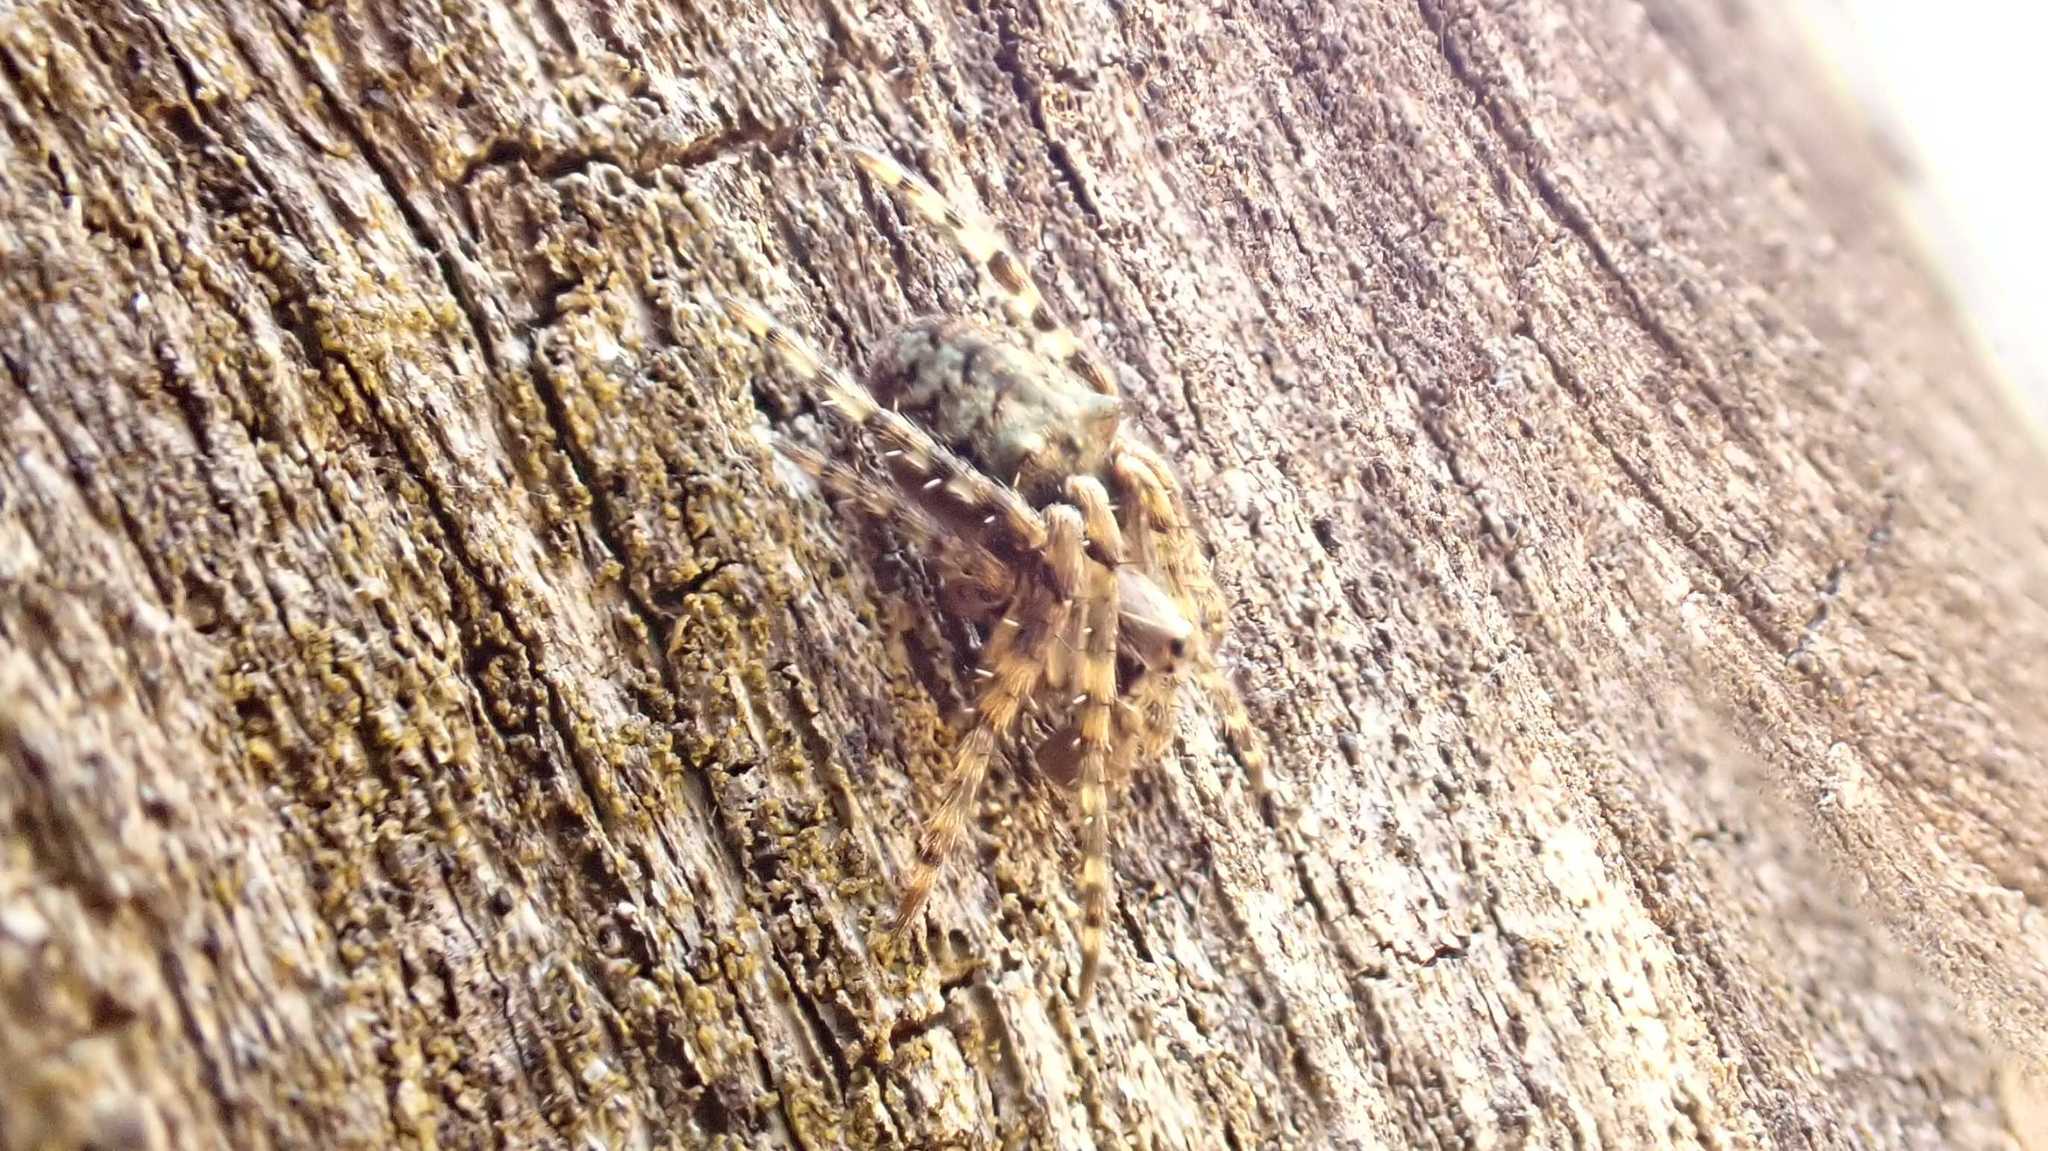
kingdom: Animalia
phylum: Arthropoda
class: Arachnida
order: Araneae
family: Araneidae
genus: Gibbaranea
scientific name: Gibbaranea gibbosa
